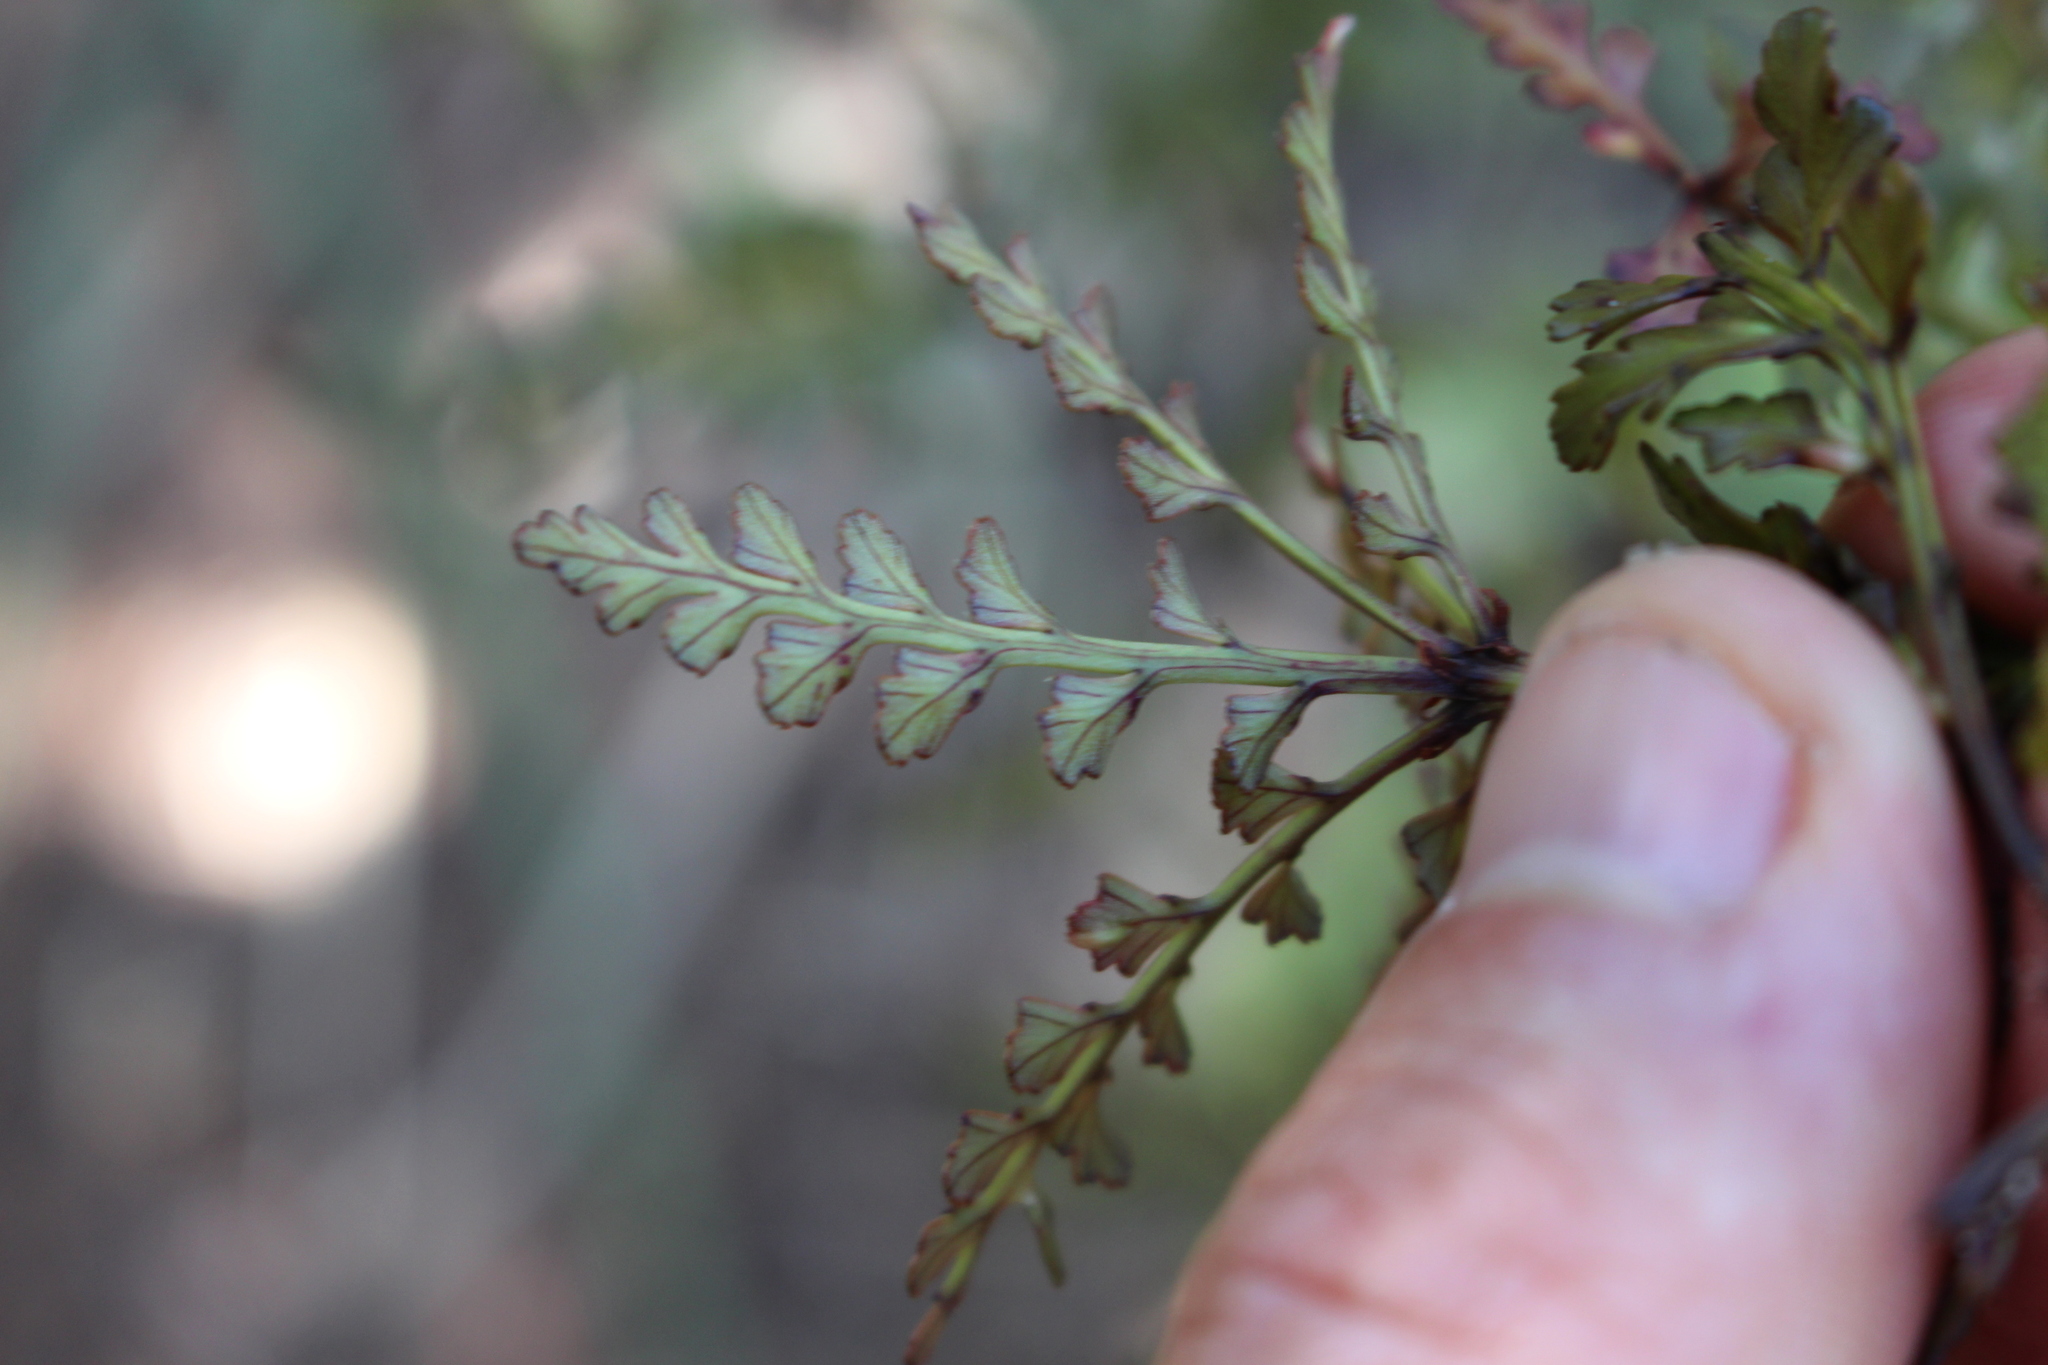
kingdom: Plantae
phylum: Tracheophyta
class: Pinopsida
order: Pinales
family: Phyllocladaceae
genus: Phyllocladus
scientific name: Phyllocladus trichomanoides
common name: Celery pine
